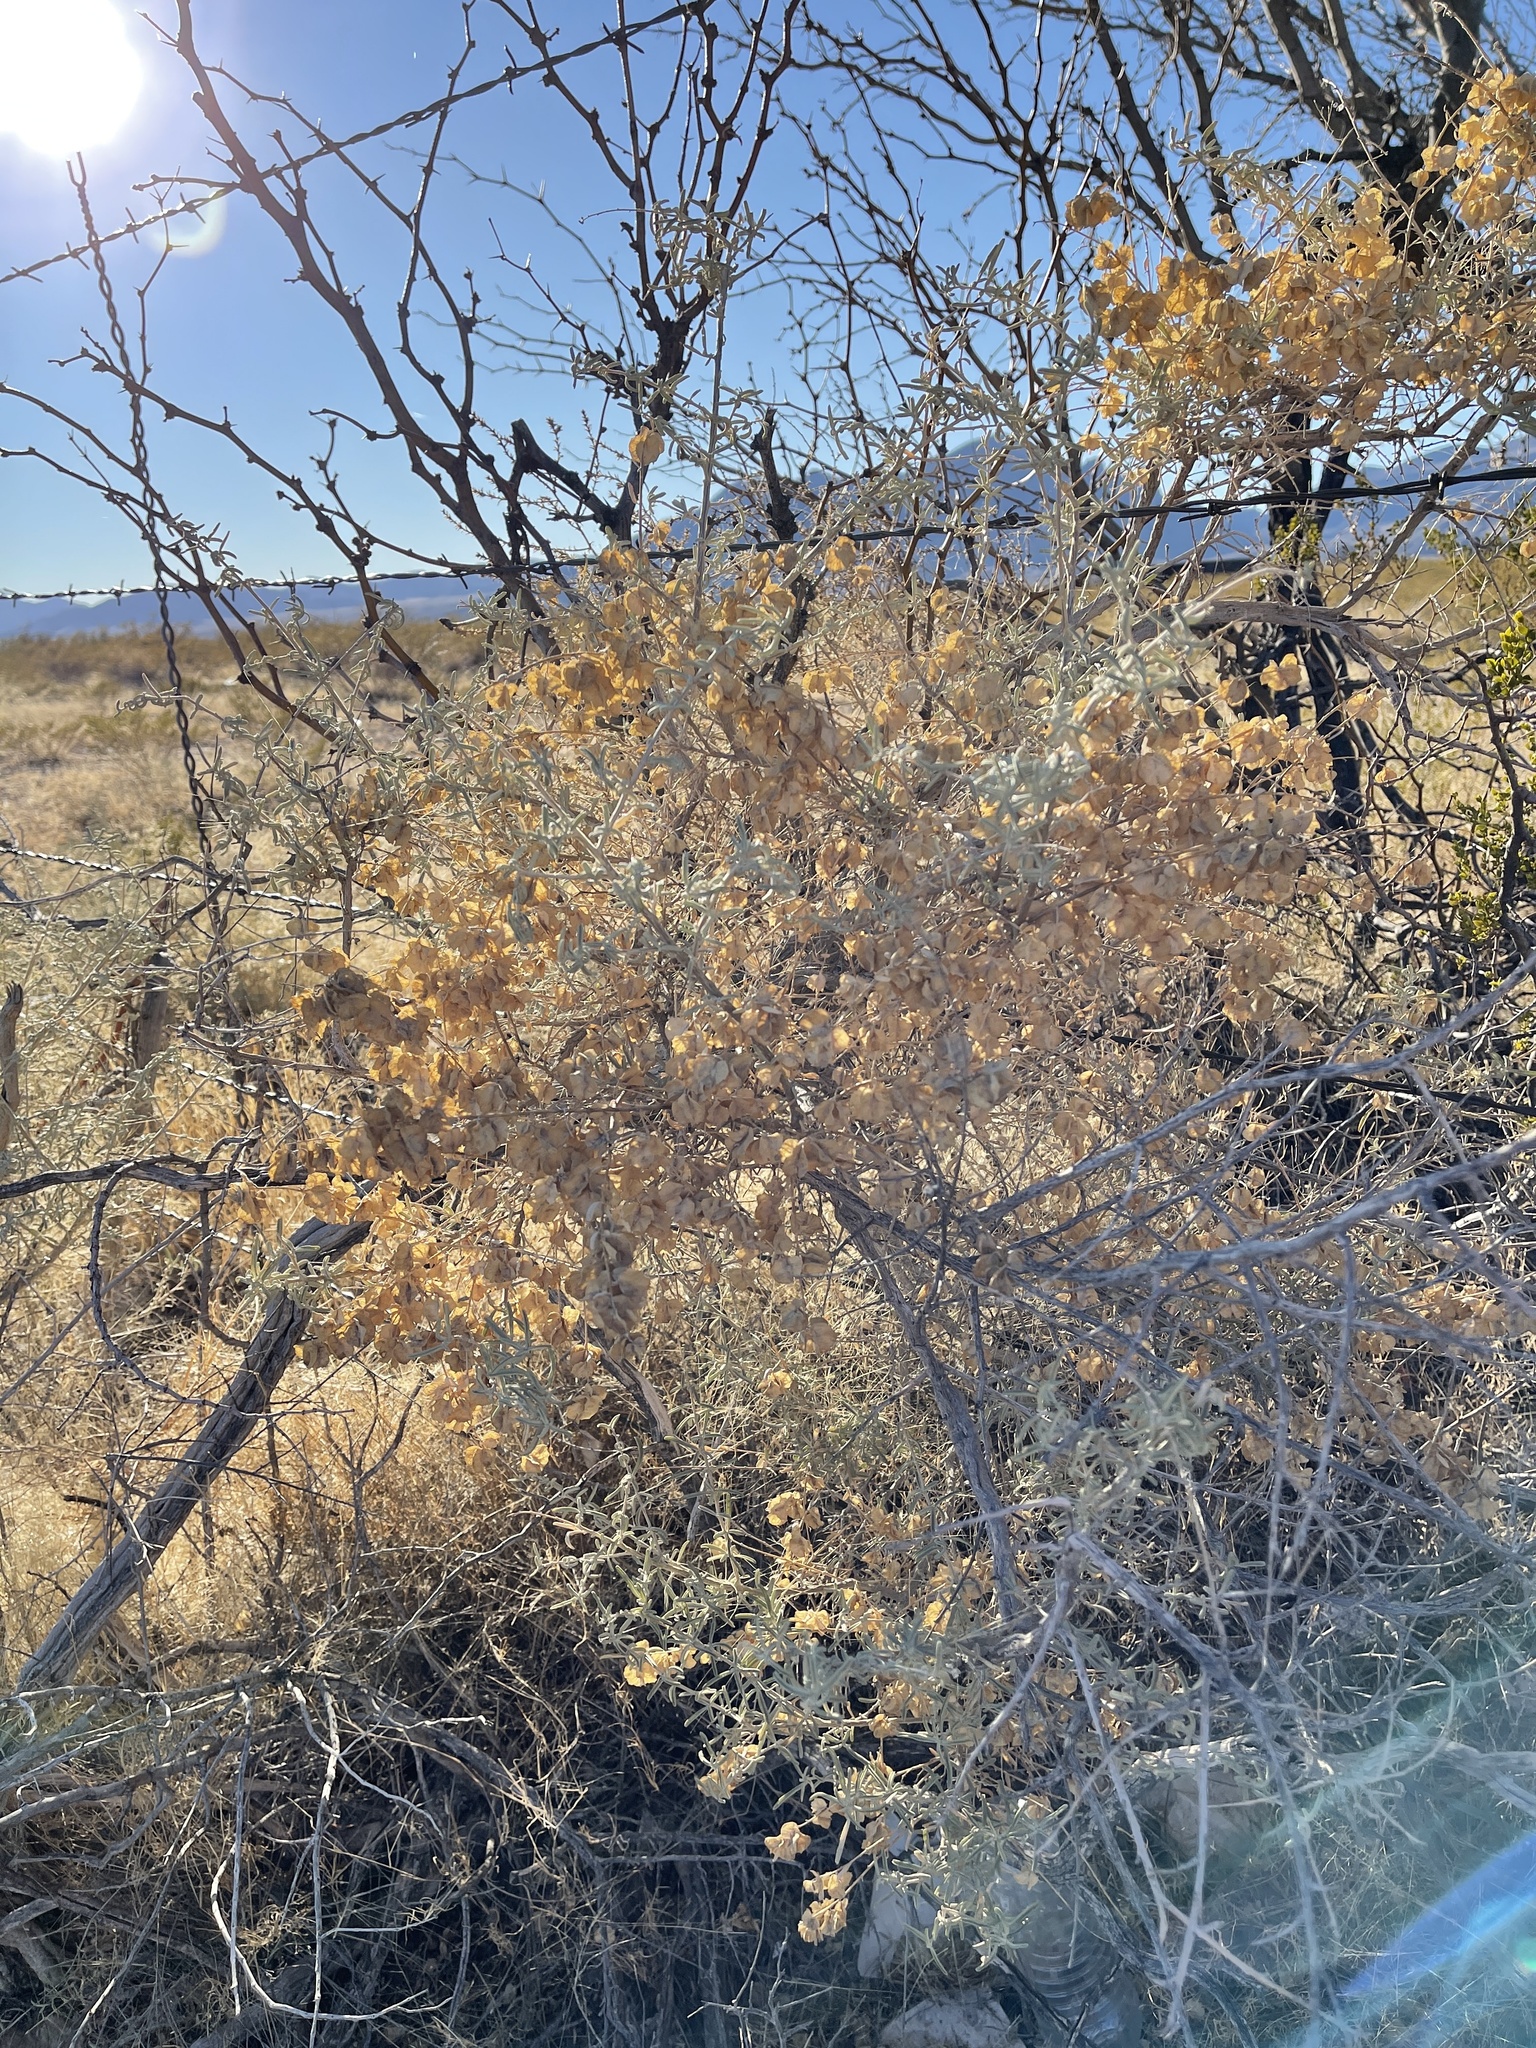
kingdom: Plantae
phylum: Tracheophyta
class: Magnoliopsida
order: Caryophyllales
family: Amaranthaceae
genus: Atriplex
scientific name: Atriplex canescens
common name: Four-wing saltbush
